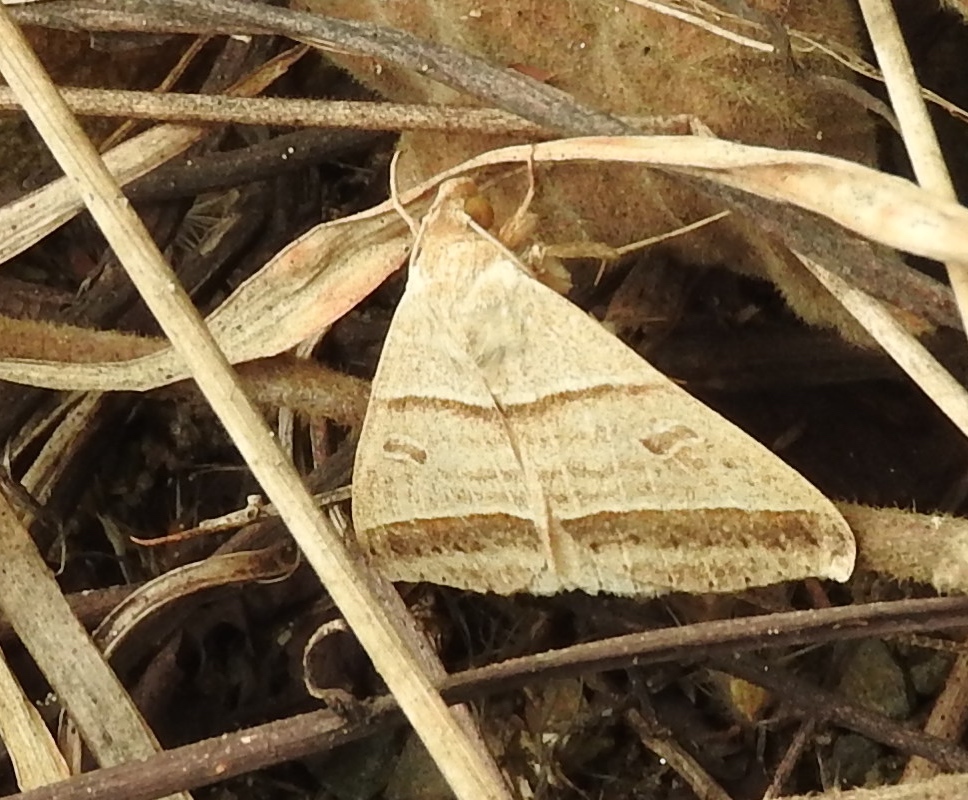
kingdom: Animalia
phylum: Arthropoda
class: Insecta
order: Lepidoptera
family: Erebidae
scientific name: Erebidae
